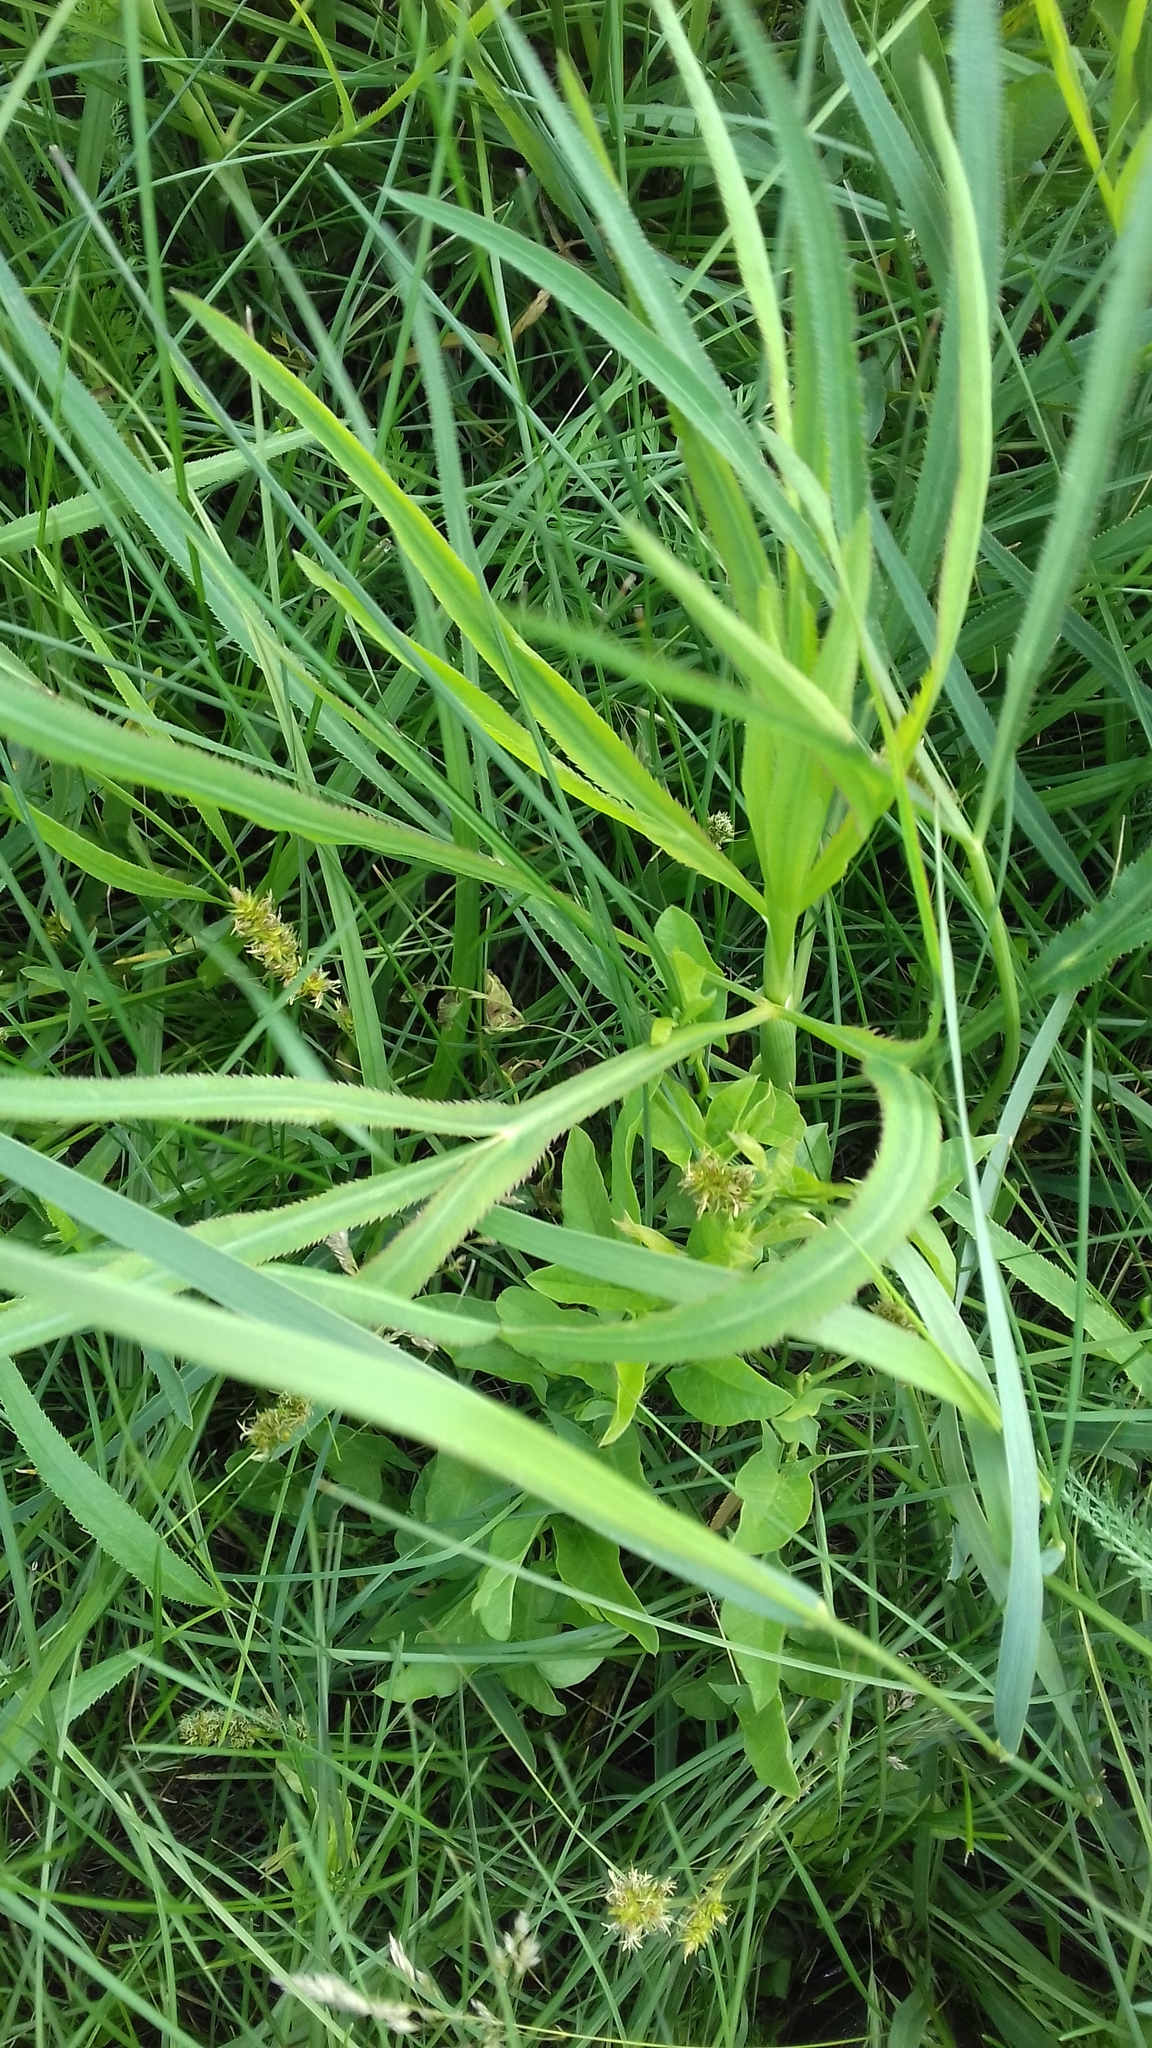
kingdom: Plantae
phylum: Tracheophyta
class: Magnoliopsida
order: Apiales
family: Apiaceae
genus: Falcaria
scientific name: Falcaria vulgaris
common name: Longleaf
